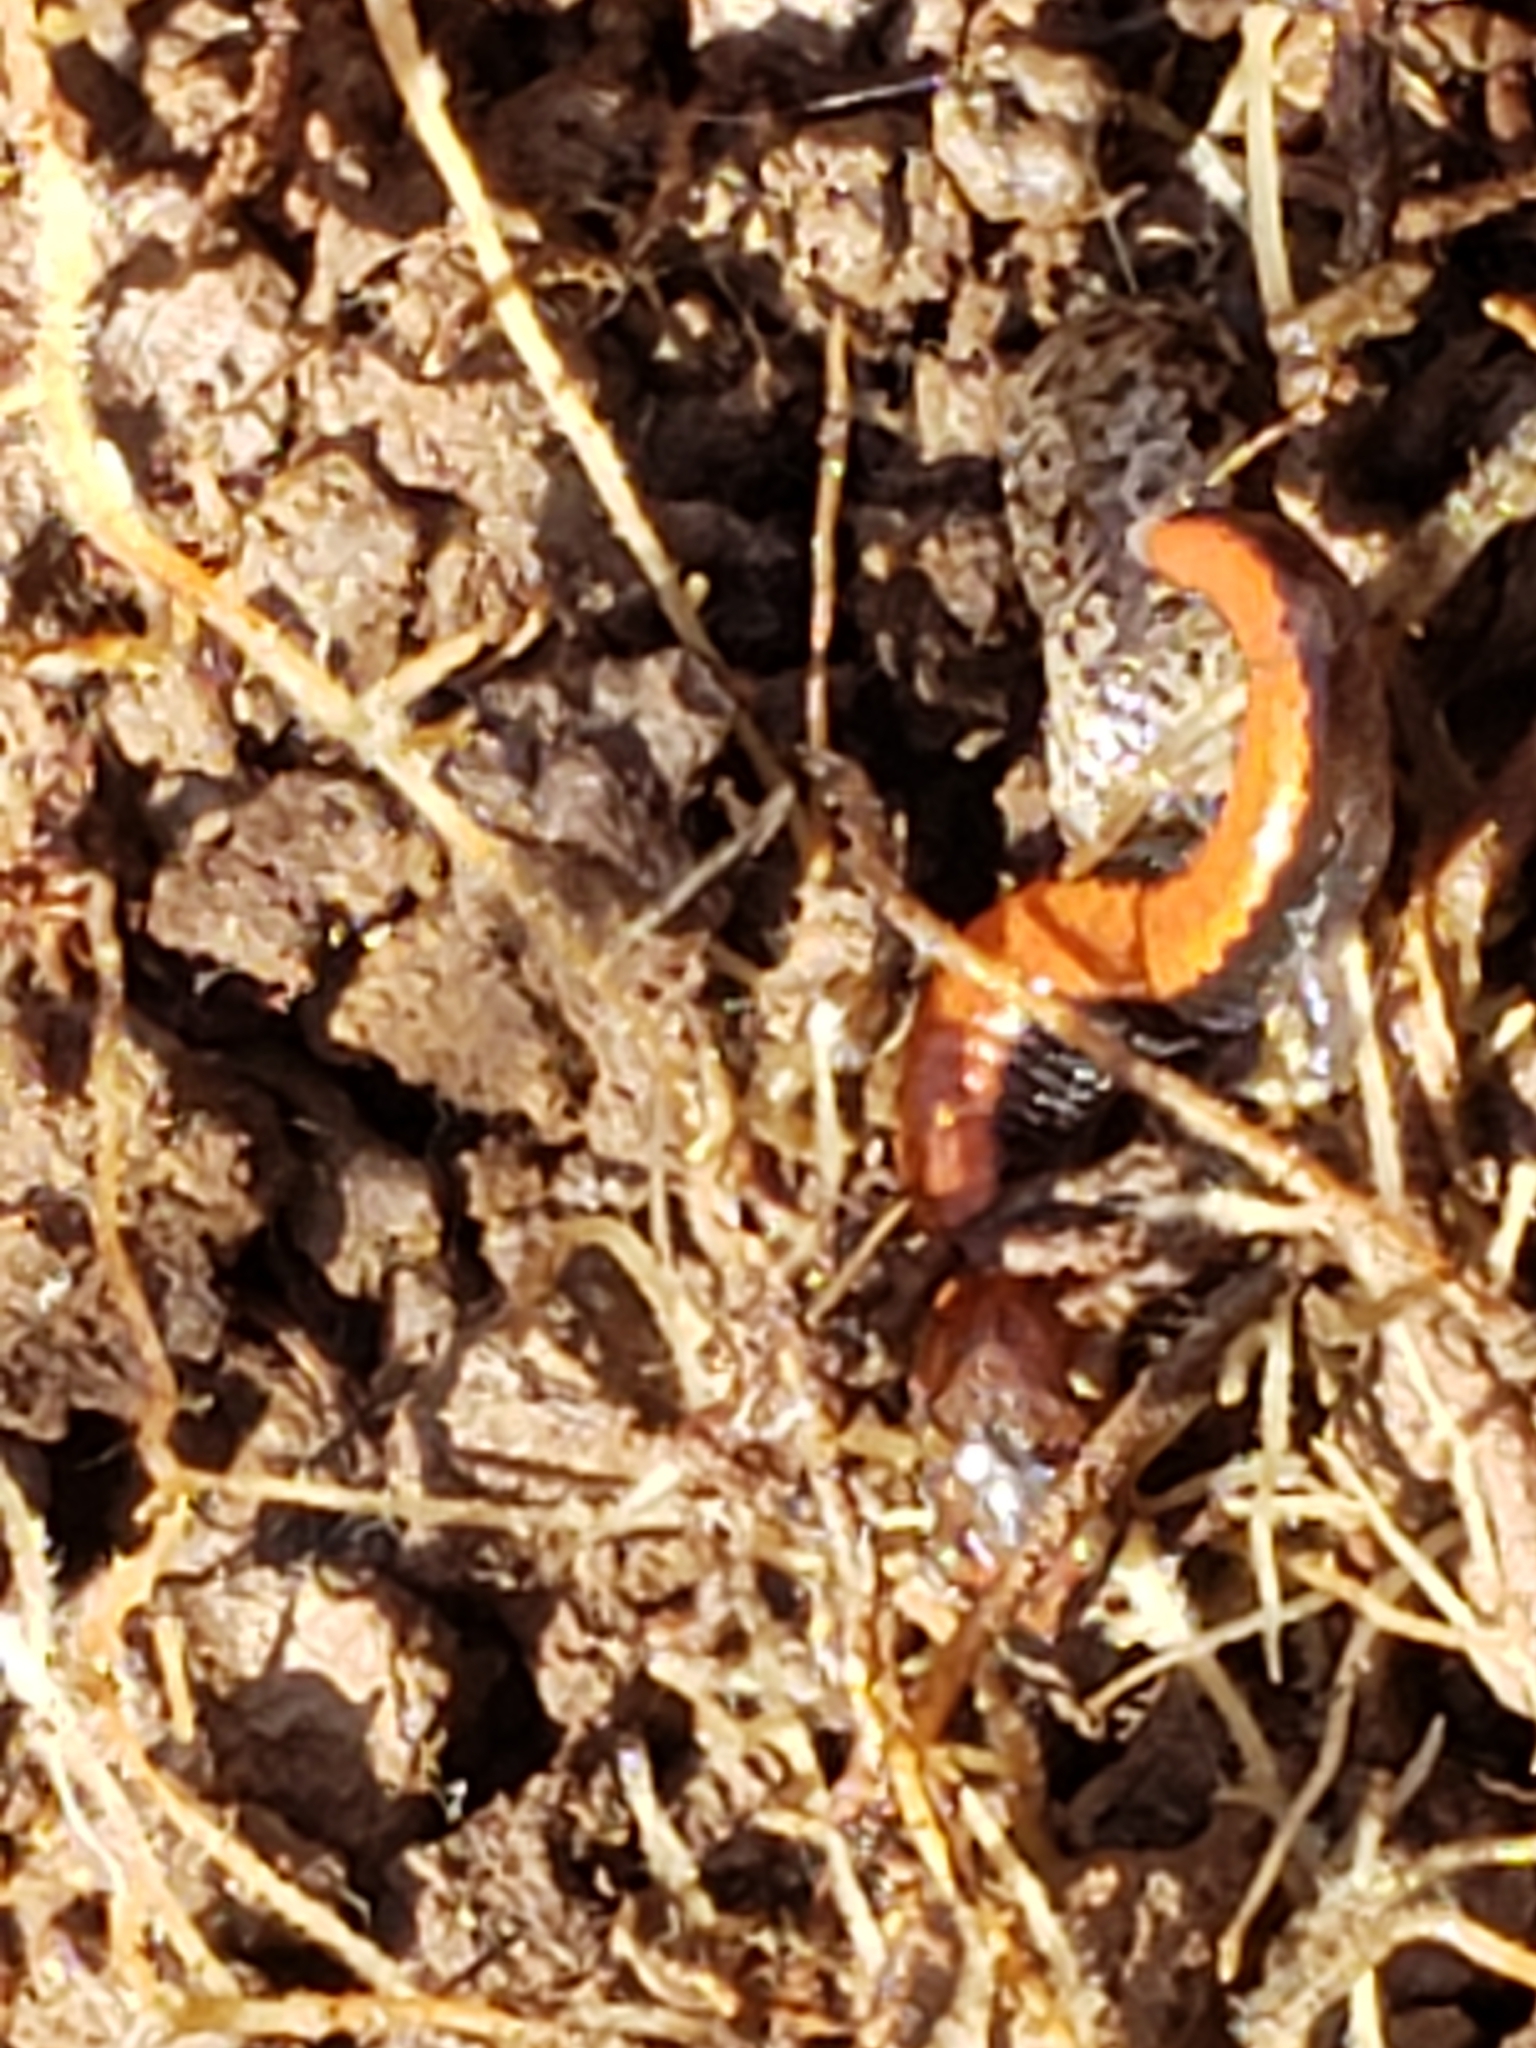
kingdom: Animalia
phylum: Chordata
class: Amphibia
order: Caudata
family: Plethodontidae
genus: Plethodon
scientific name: Plethodon cinereus
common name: Redback salamander
